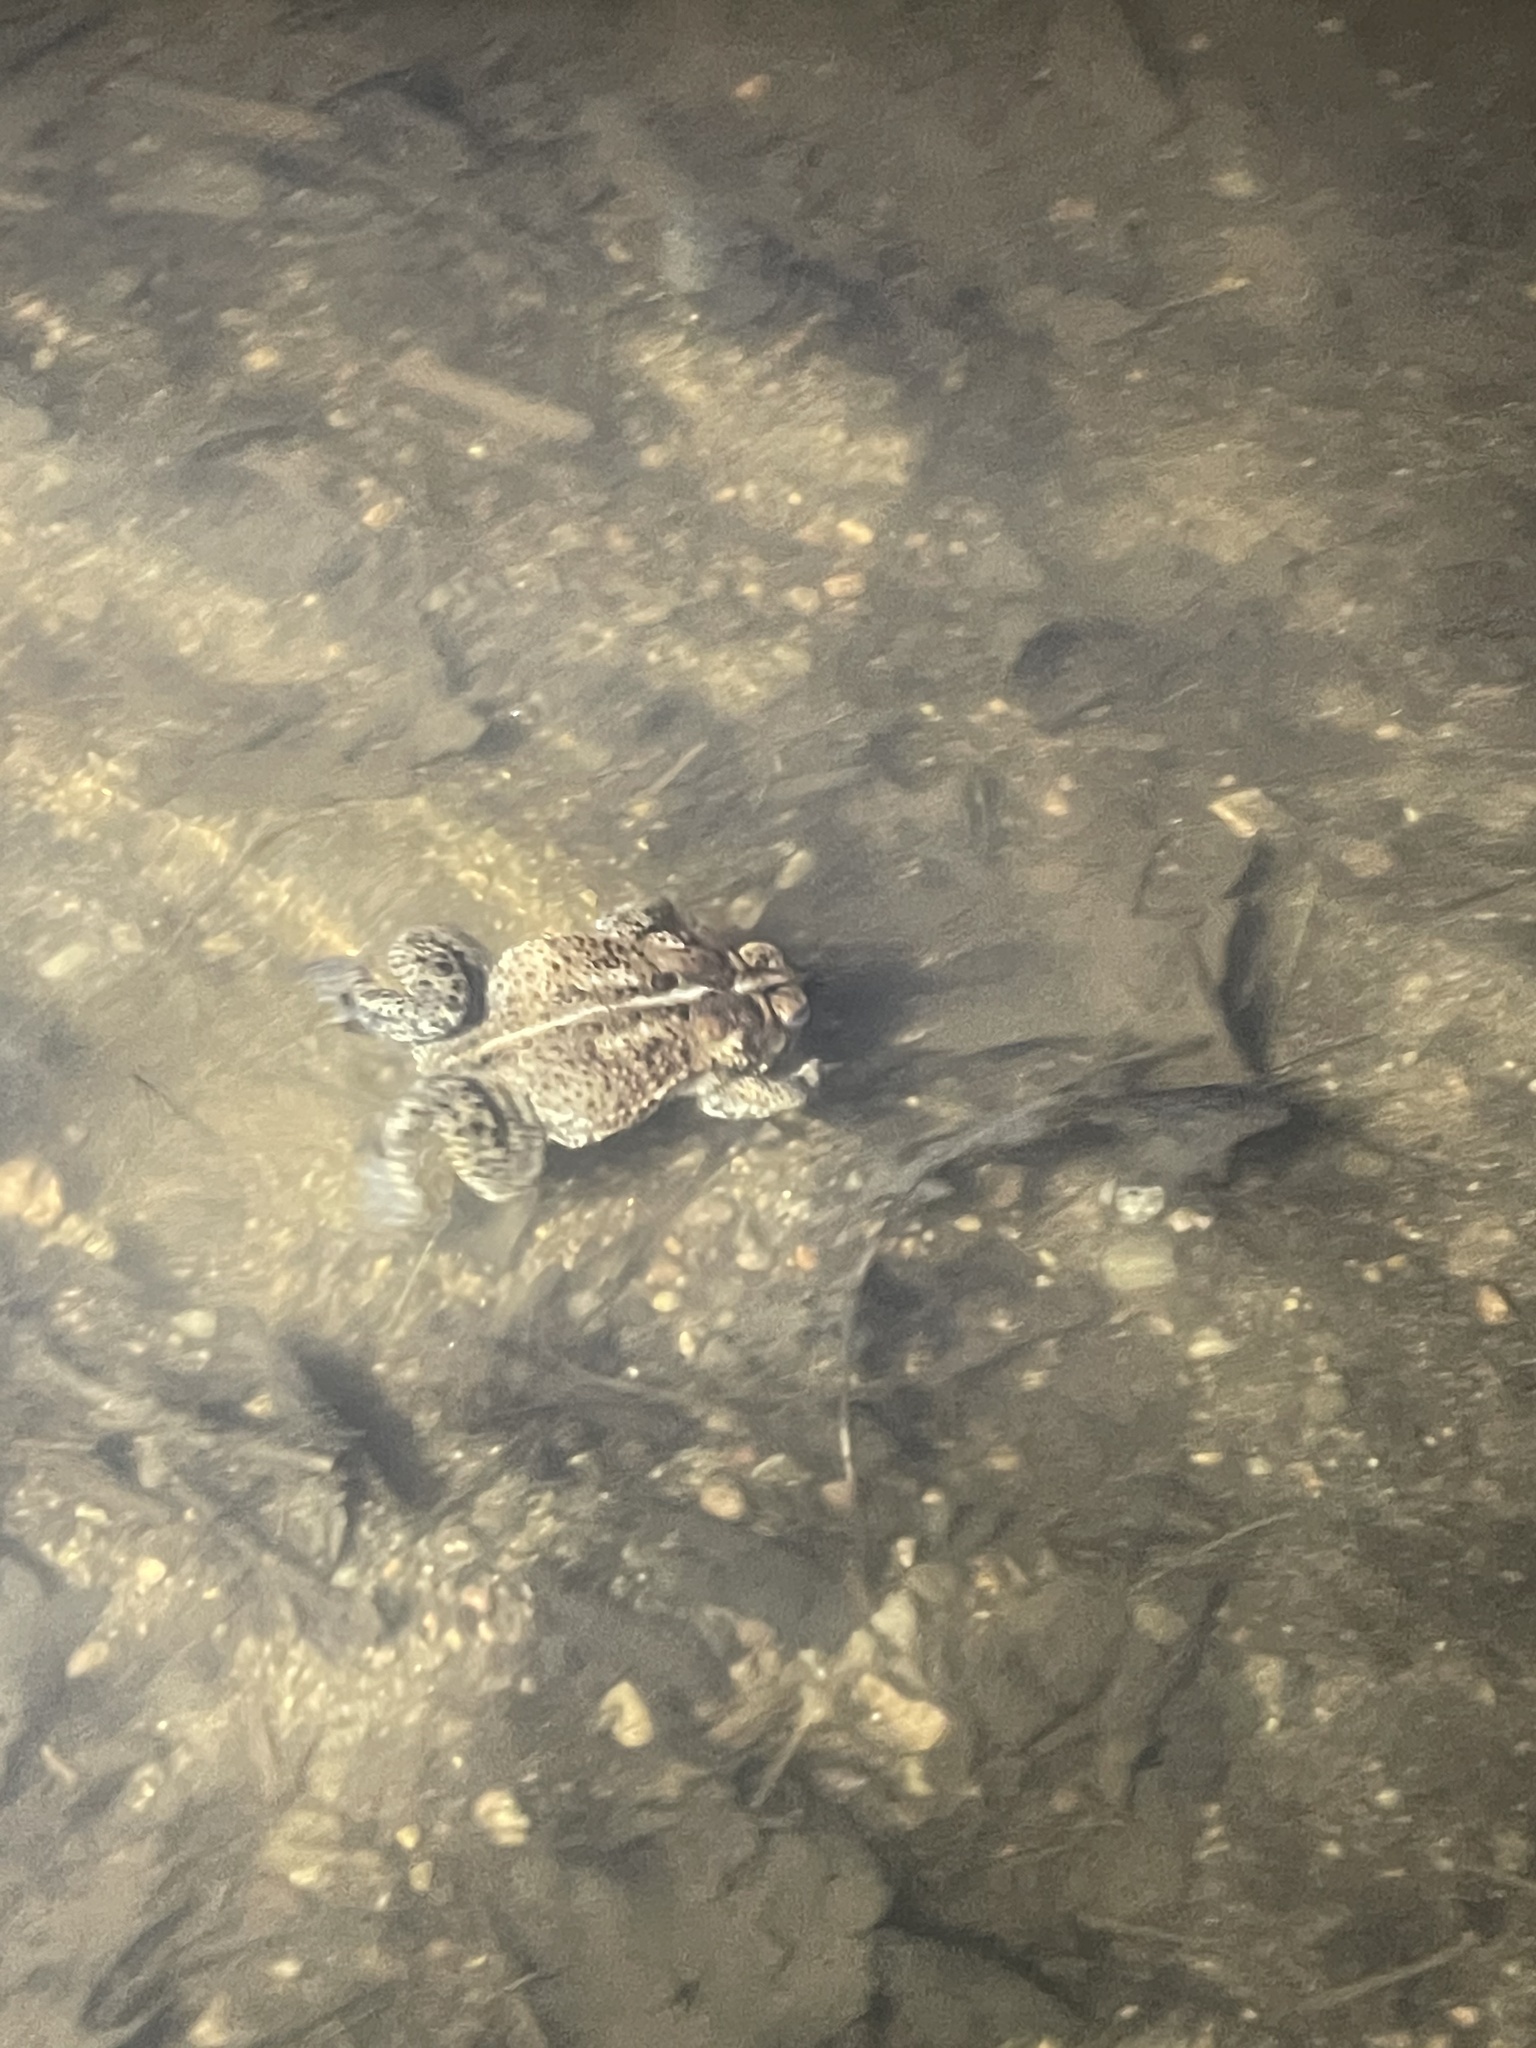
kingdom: Animalia
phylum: Chordata
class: Amphibia
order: Anura
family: Bufonidae
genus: Anaxyrus
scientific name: Anaxyrus americanus
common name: American toad
